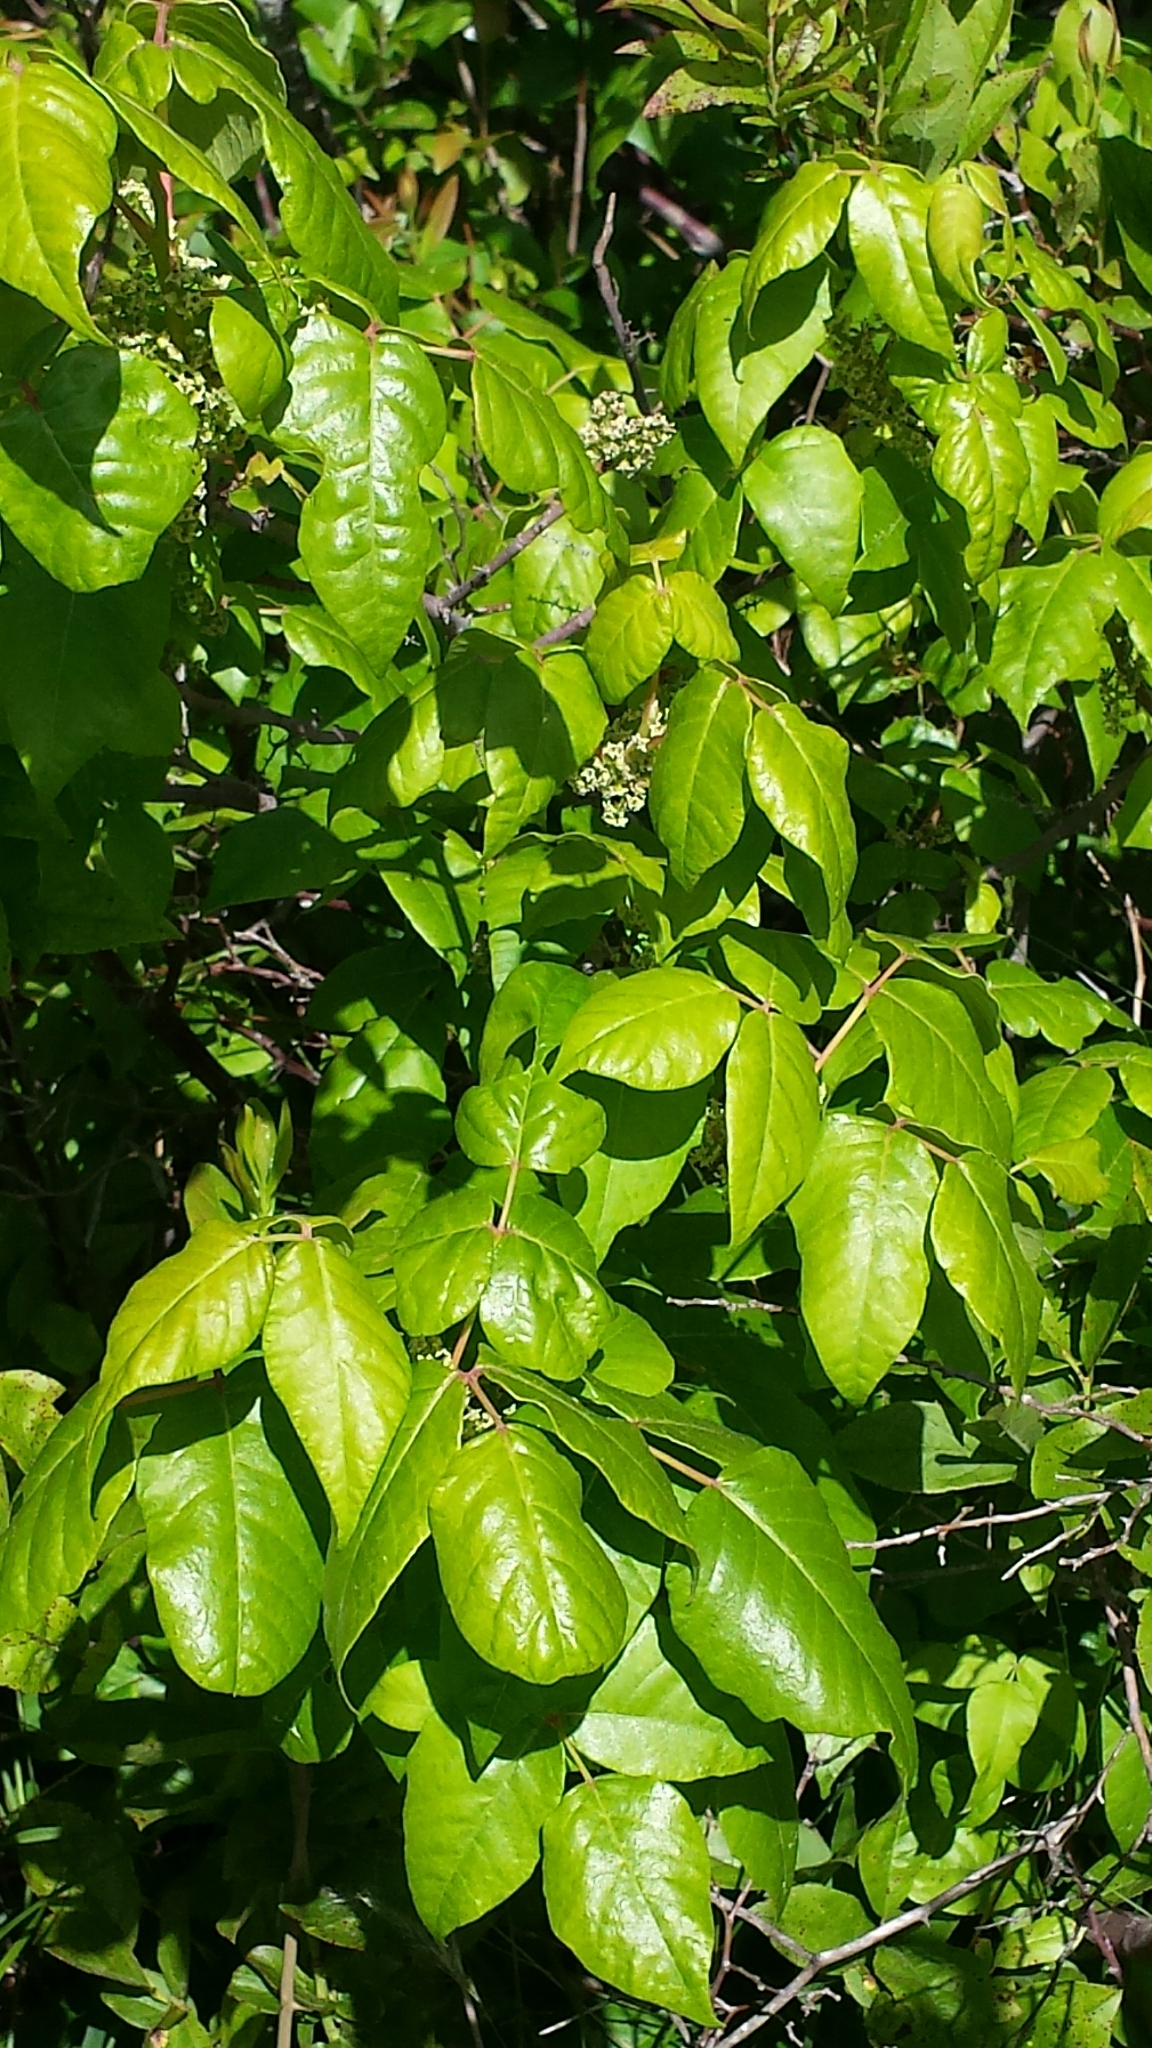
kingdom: Plantae
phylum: Tracheophyta
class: Magnoliopsida
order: Sapindales
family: Anacardiaceae
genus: Toxicodendron
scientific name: Toxicodendron radicans
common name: Poison ivy
